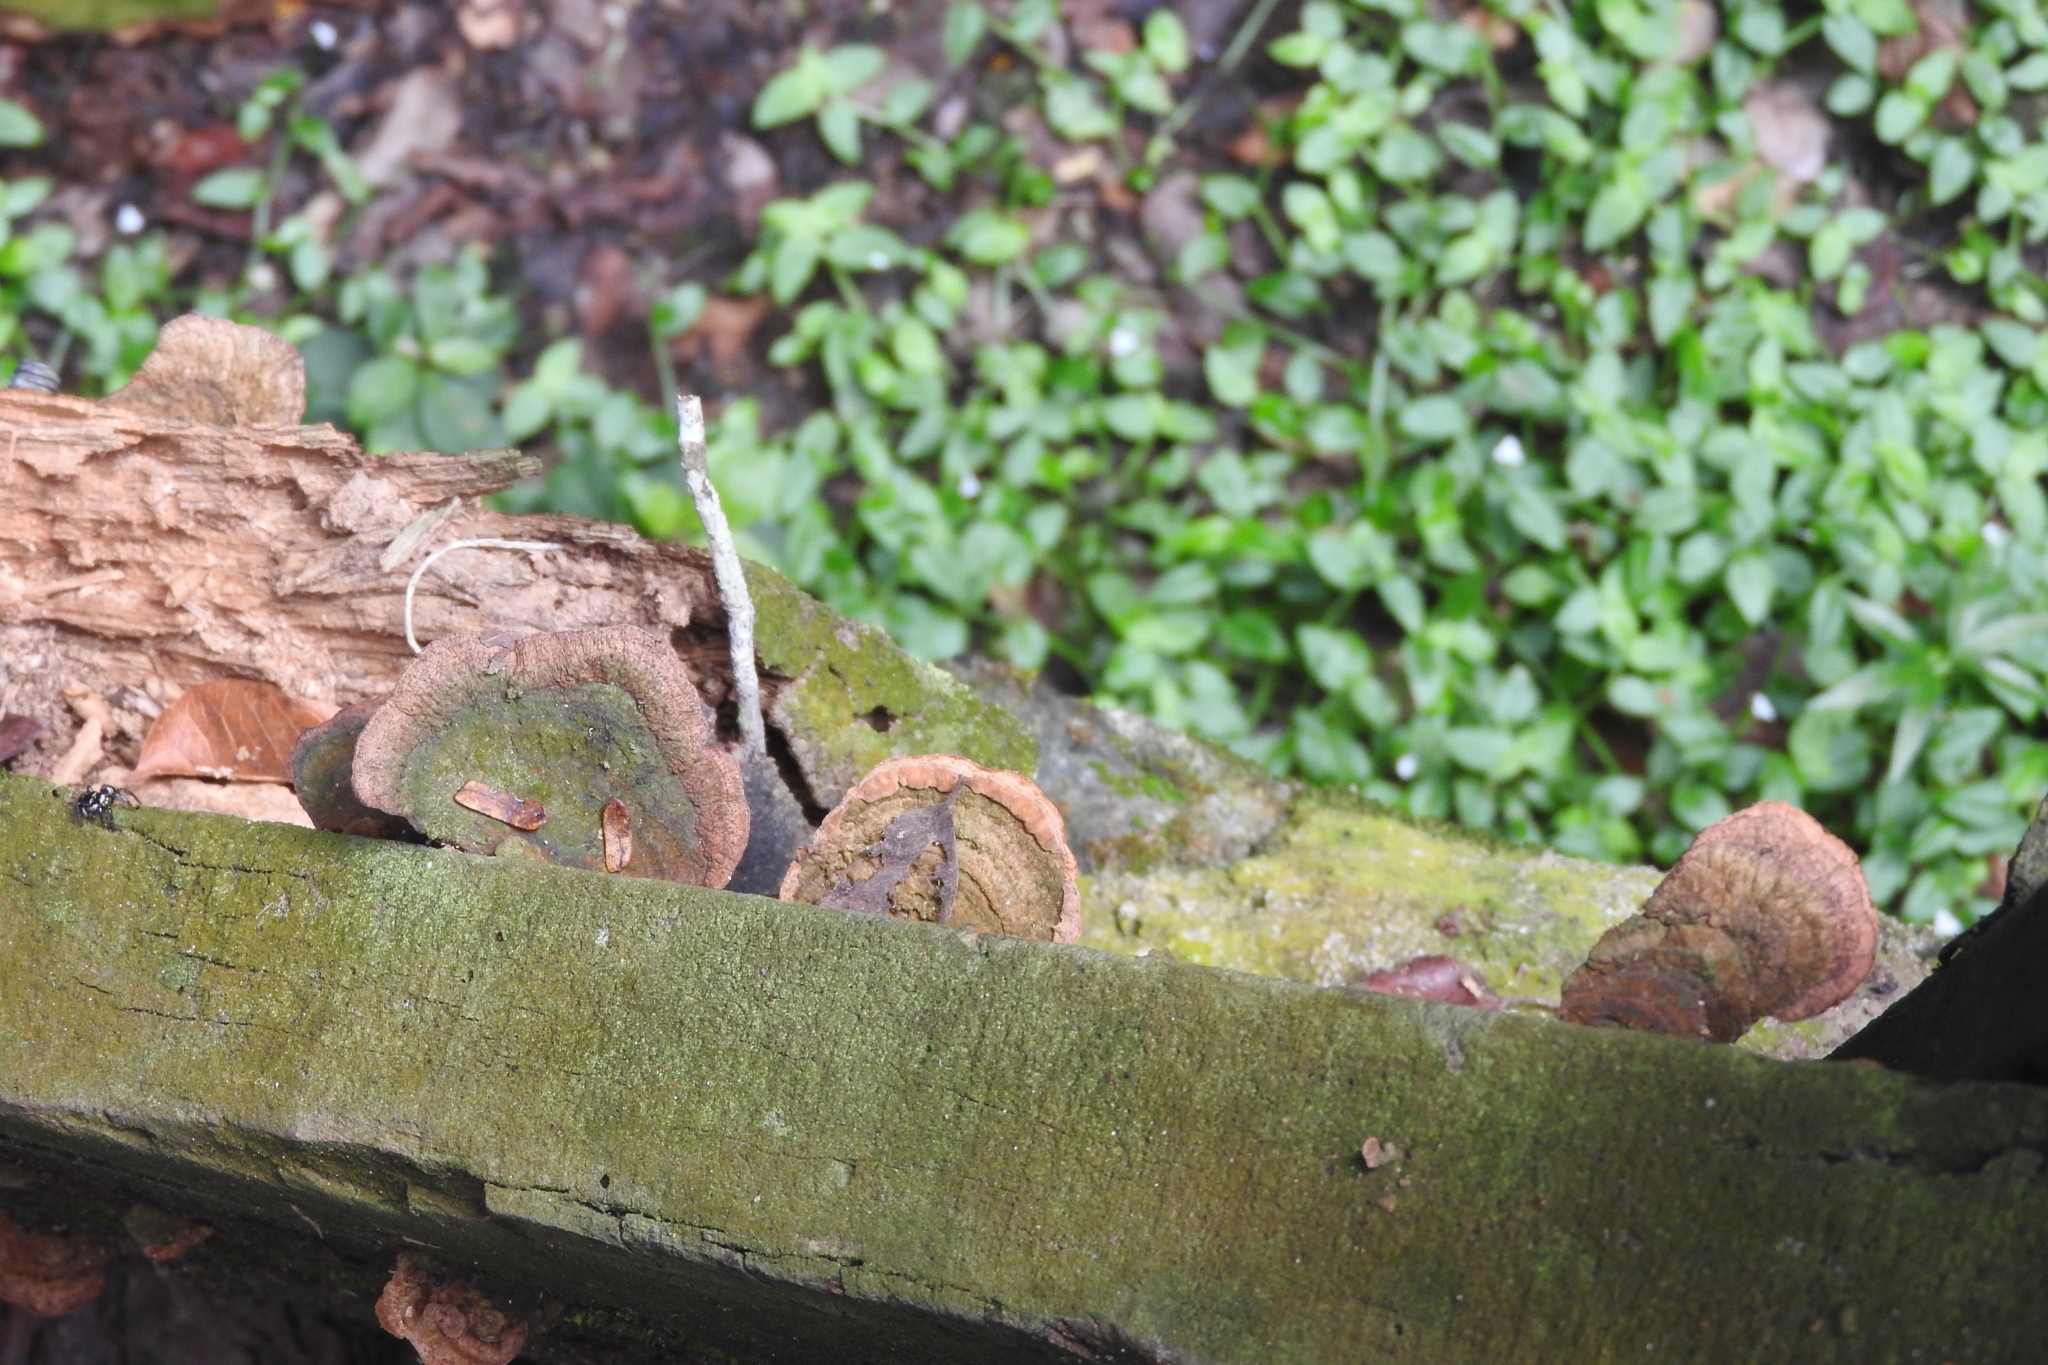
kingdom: Fungi
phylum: Basidiomycota
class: Agaricomycetes
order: Polyporales
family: Cerrenaceae
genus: Cerrena
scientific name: Cerrena hydnoides
